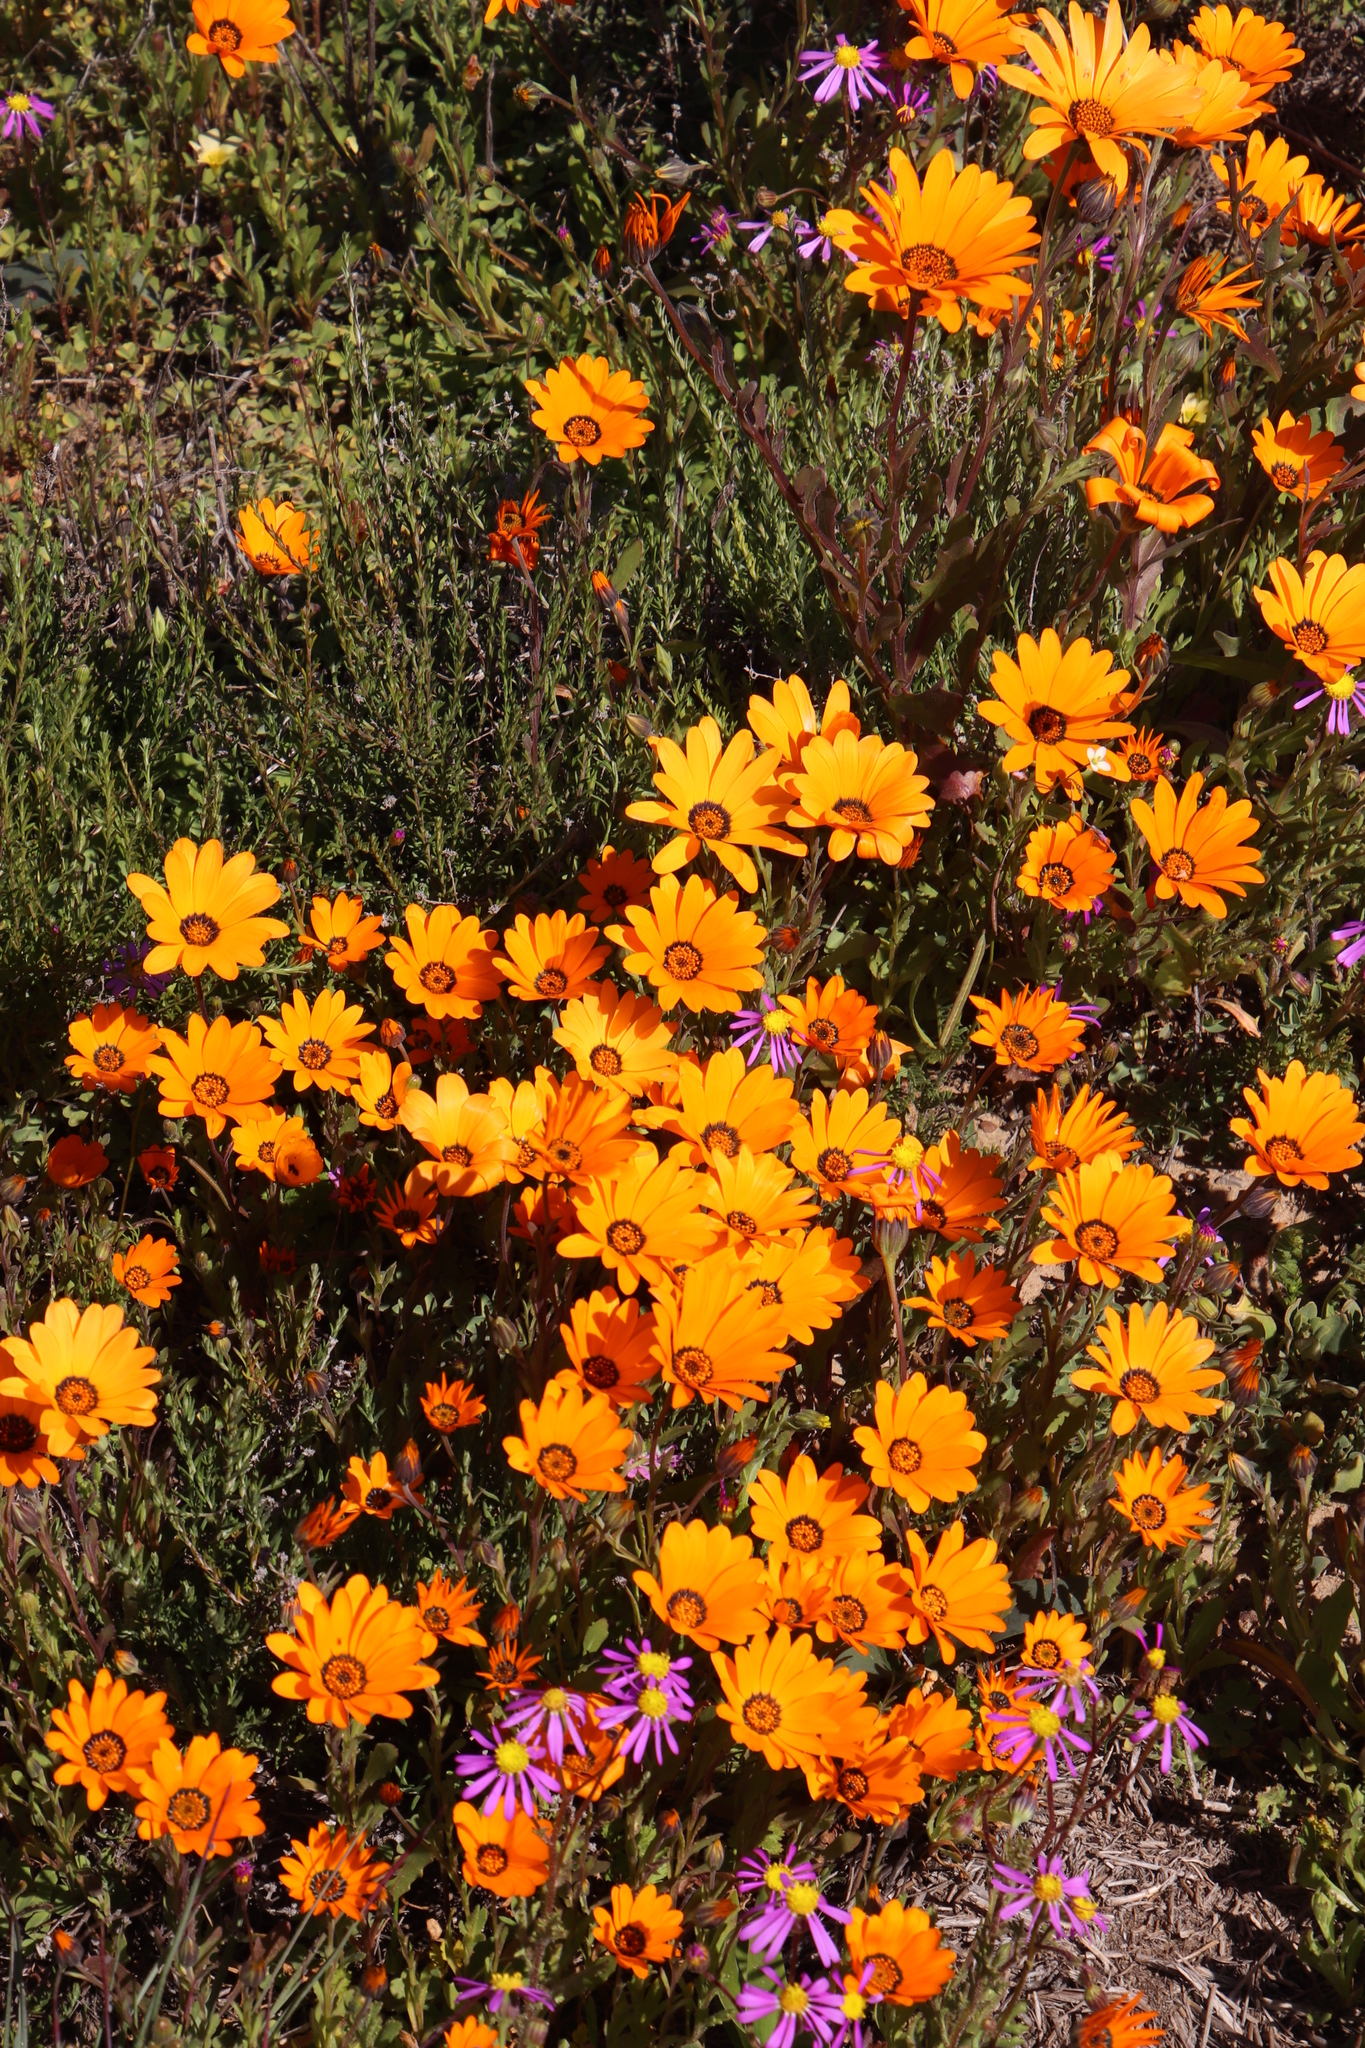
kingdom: Plantae
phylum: Tracheophyta
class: Magnoliopsida
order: Asterales
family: Asteraceae
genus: Dimorphotheca
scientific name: Dimorphotheca sinuata
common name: Glandular cape marigold
